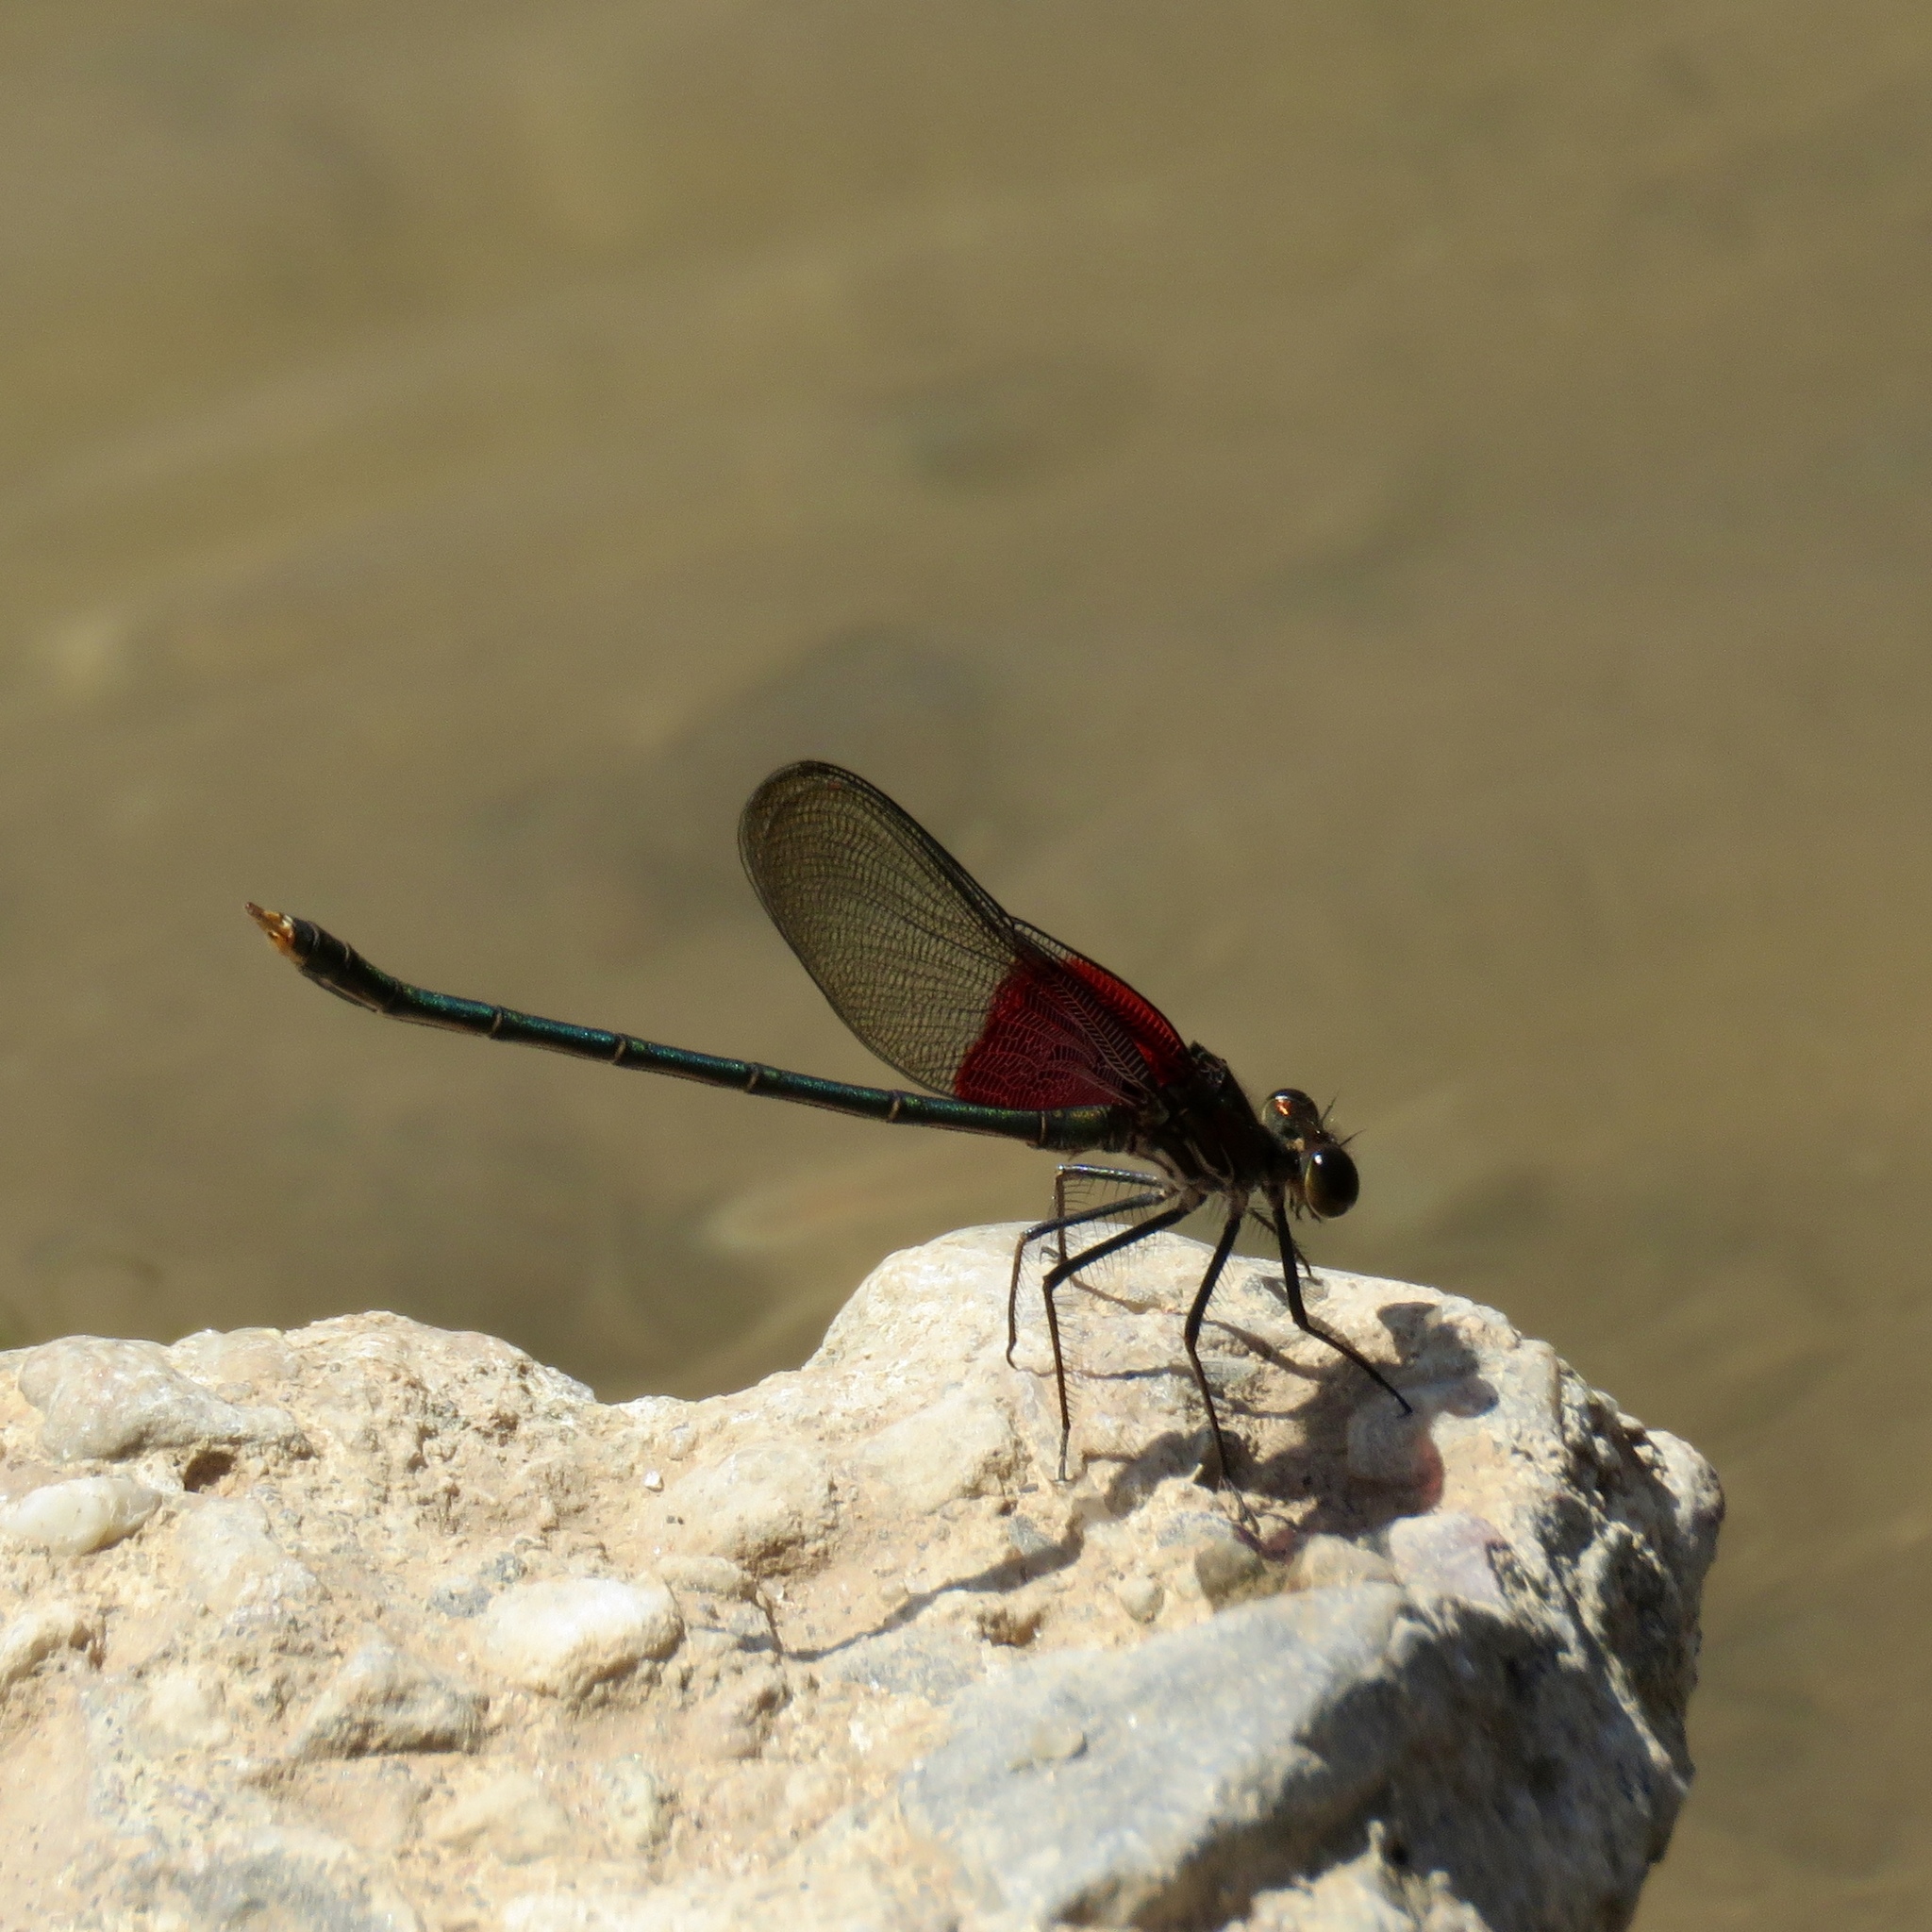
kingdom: Animalia
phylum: Arthropoda
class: Insecta
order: Odonata
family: Calopterygidae
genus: Hetaerina
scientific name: Hetaerina americana
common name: American rubyspot
